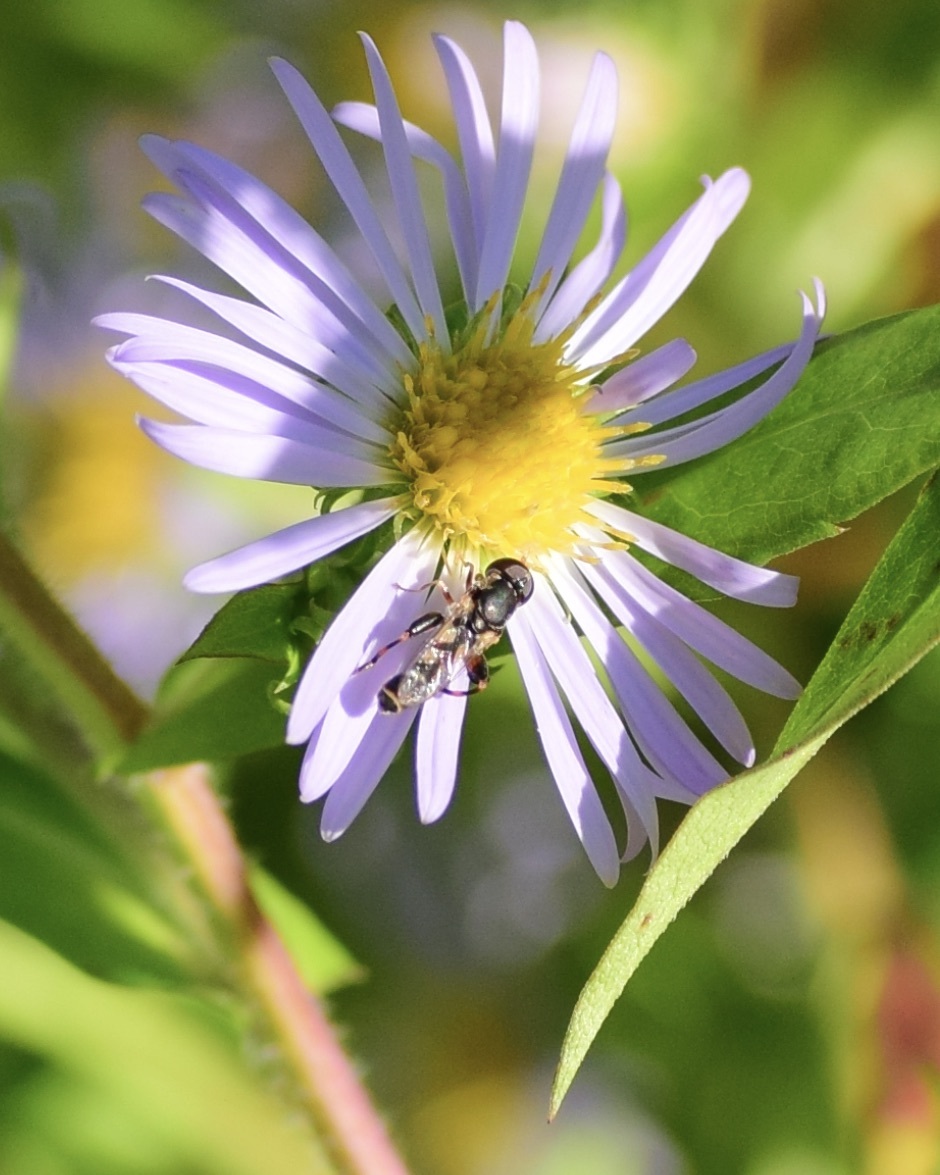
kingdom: Animalia
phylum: Arthropoda
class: Insecta
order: Diptera
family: Syrphidae
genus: Syritta
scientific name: Syritta pipiens
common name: Hover fly
